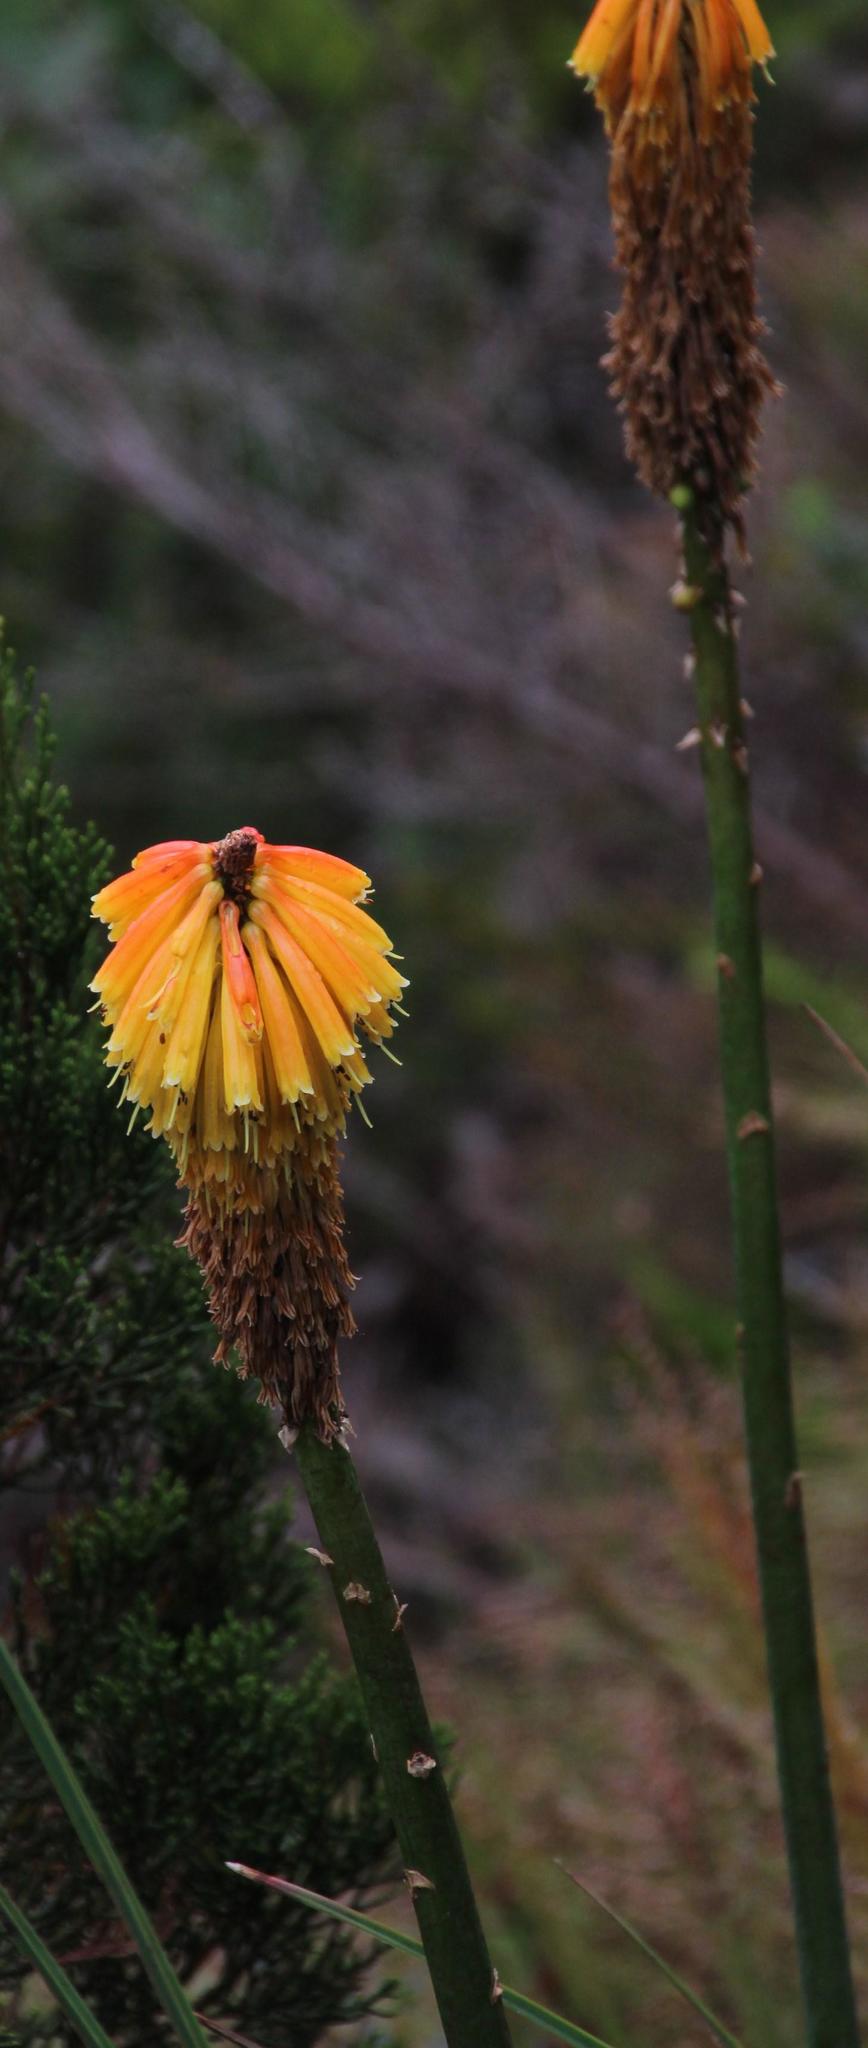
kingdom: Plantae
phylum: Tracheophyta
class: Liliopsida
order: Asparagales
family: Asphodelaceae
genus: Kniphofia
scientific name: Kniphofia uvaria
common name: Red-hot-poker
